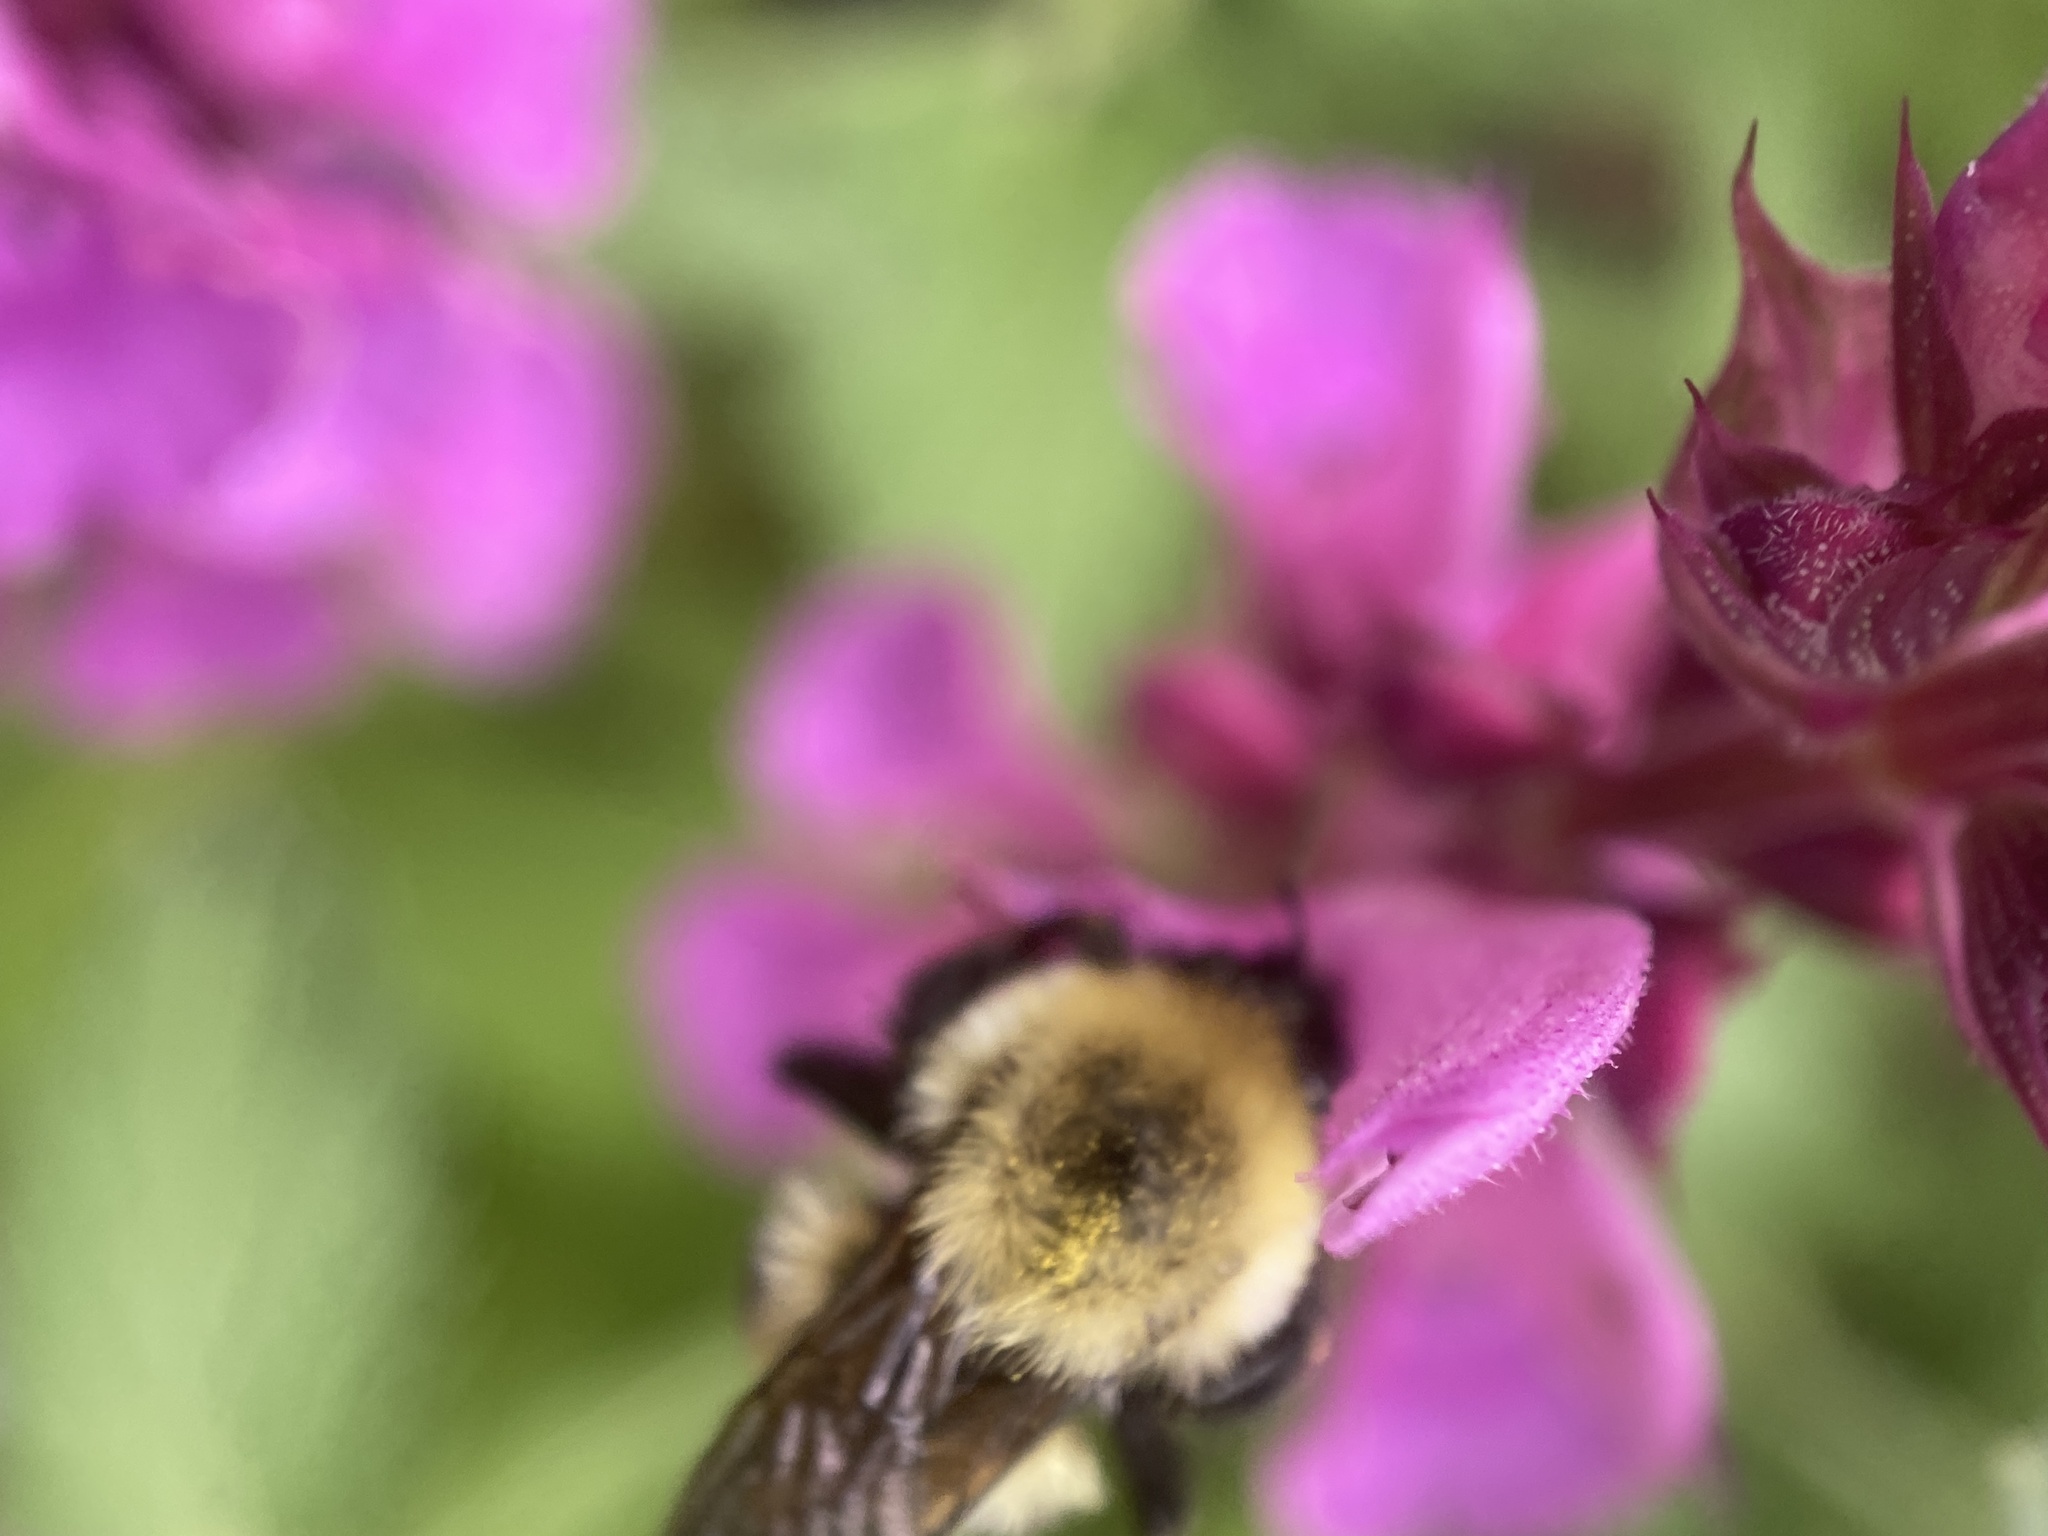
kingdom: Animalia
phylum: Arthropoda
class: Insecta
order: Hymenoptera
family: Apidae
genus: Bombus
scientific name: Bombus bimaculatus
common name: Two-spotted bumble bee
